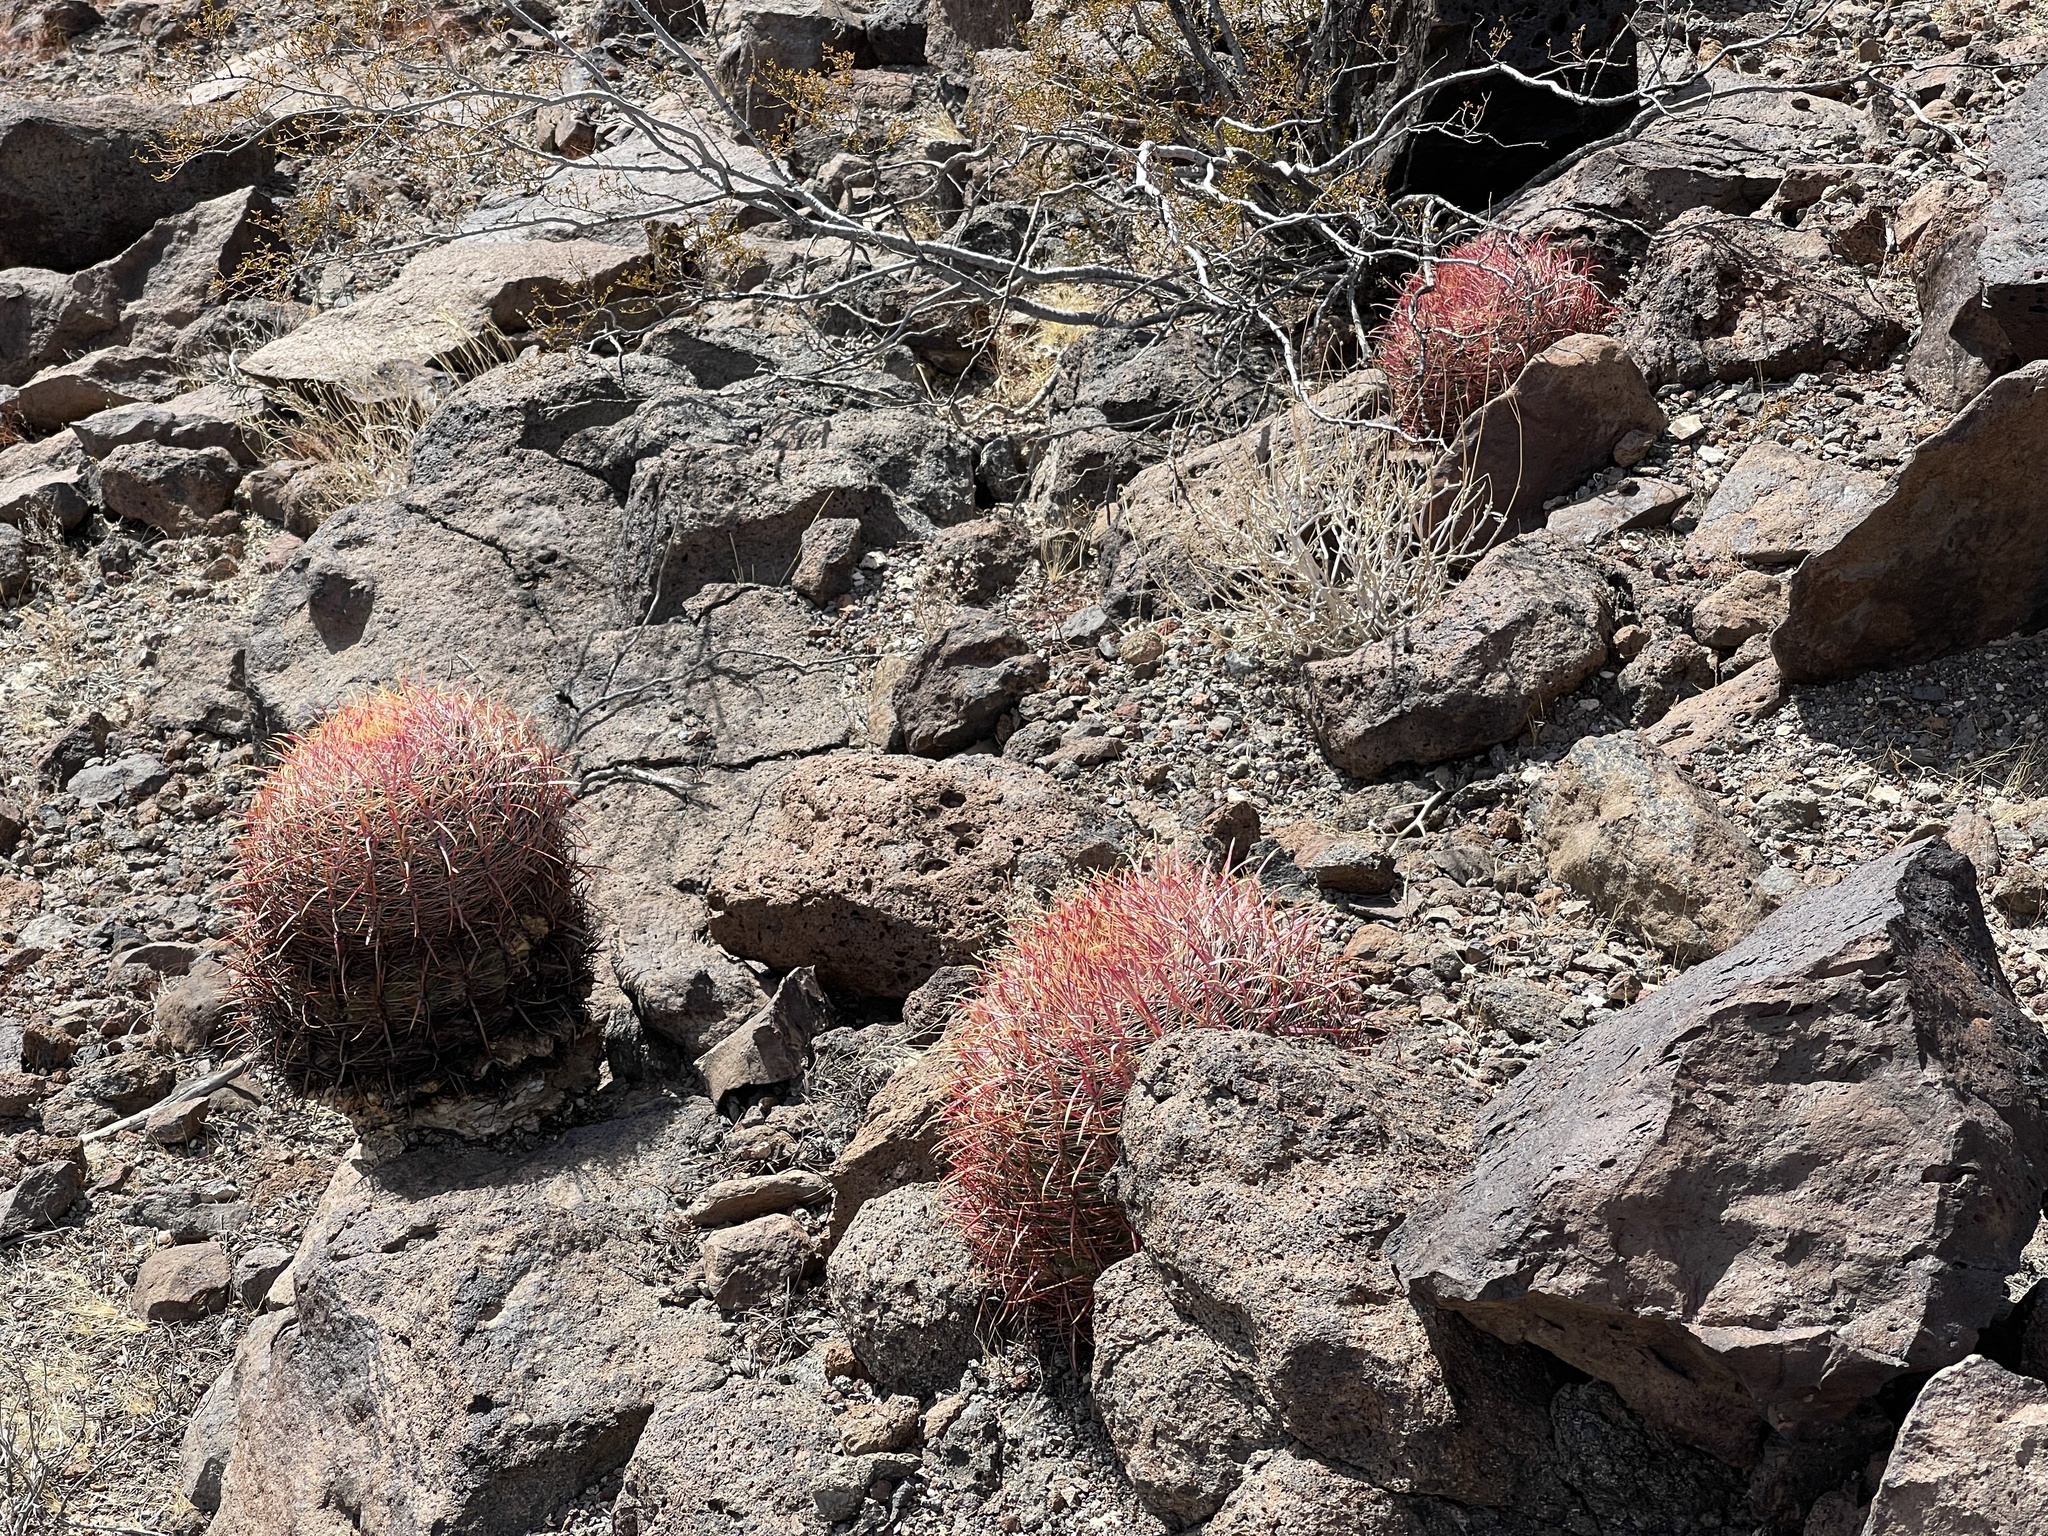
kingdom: Plantae
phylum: Tracheophyta
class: Magnoliopsida
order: Caryophyllales
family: Cactaceae
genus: Ferocactus
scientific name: Ferocactus cylindraceus
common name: California barrel cactus
